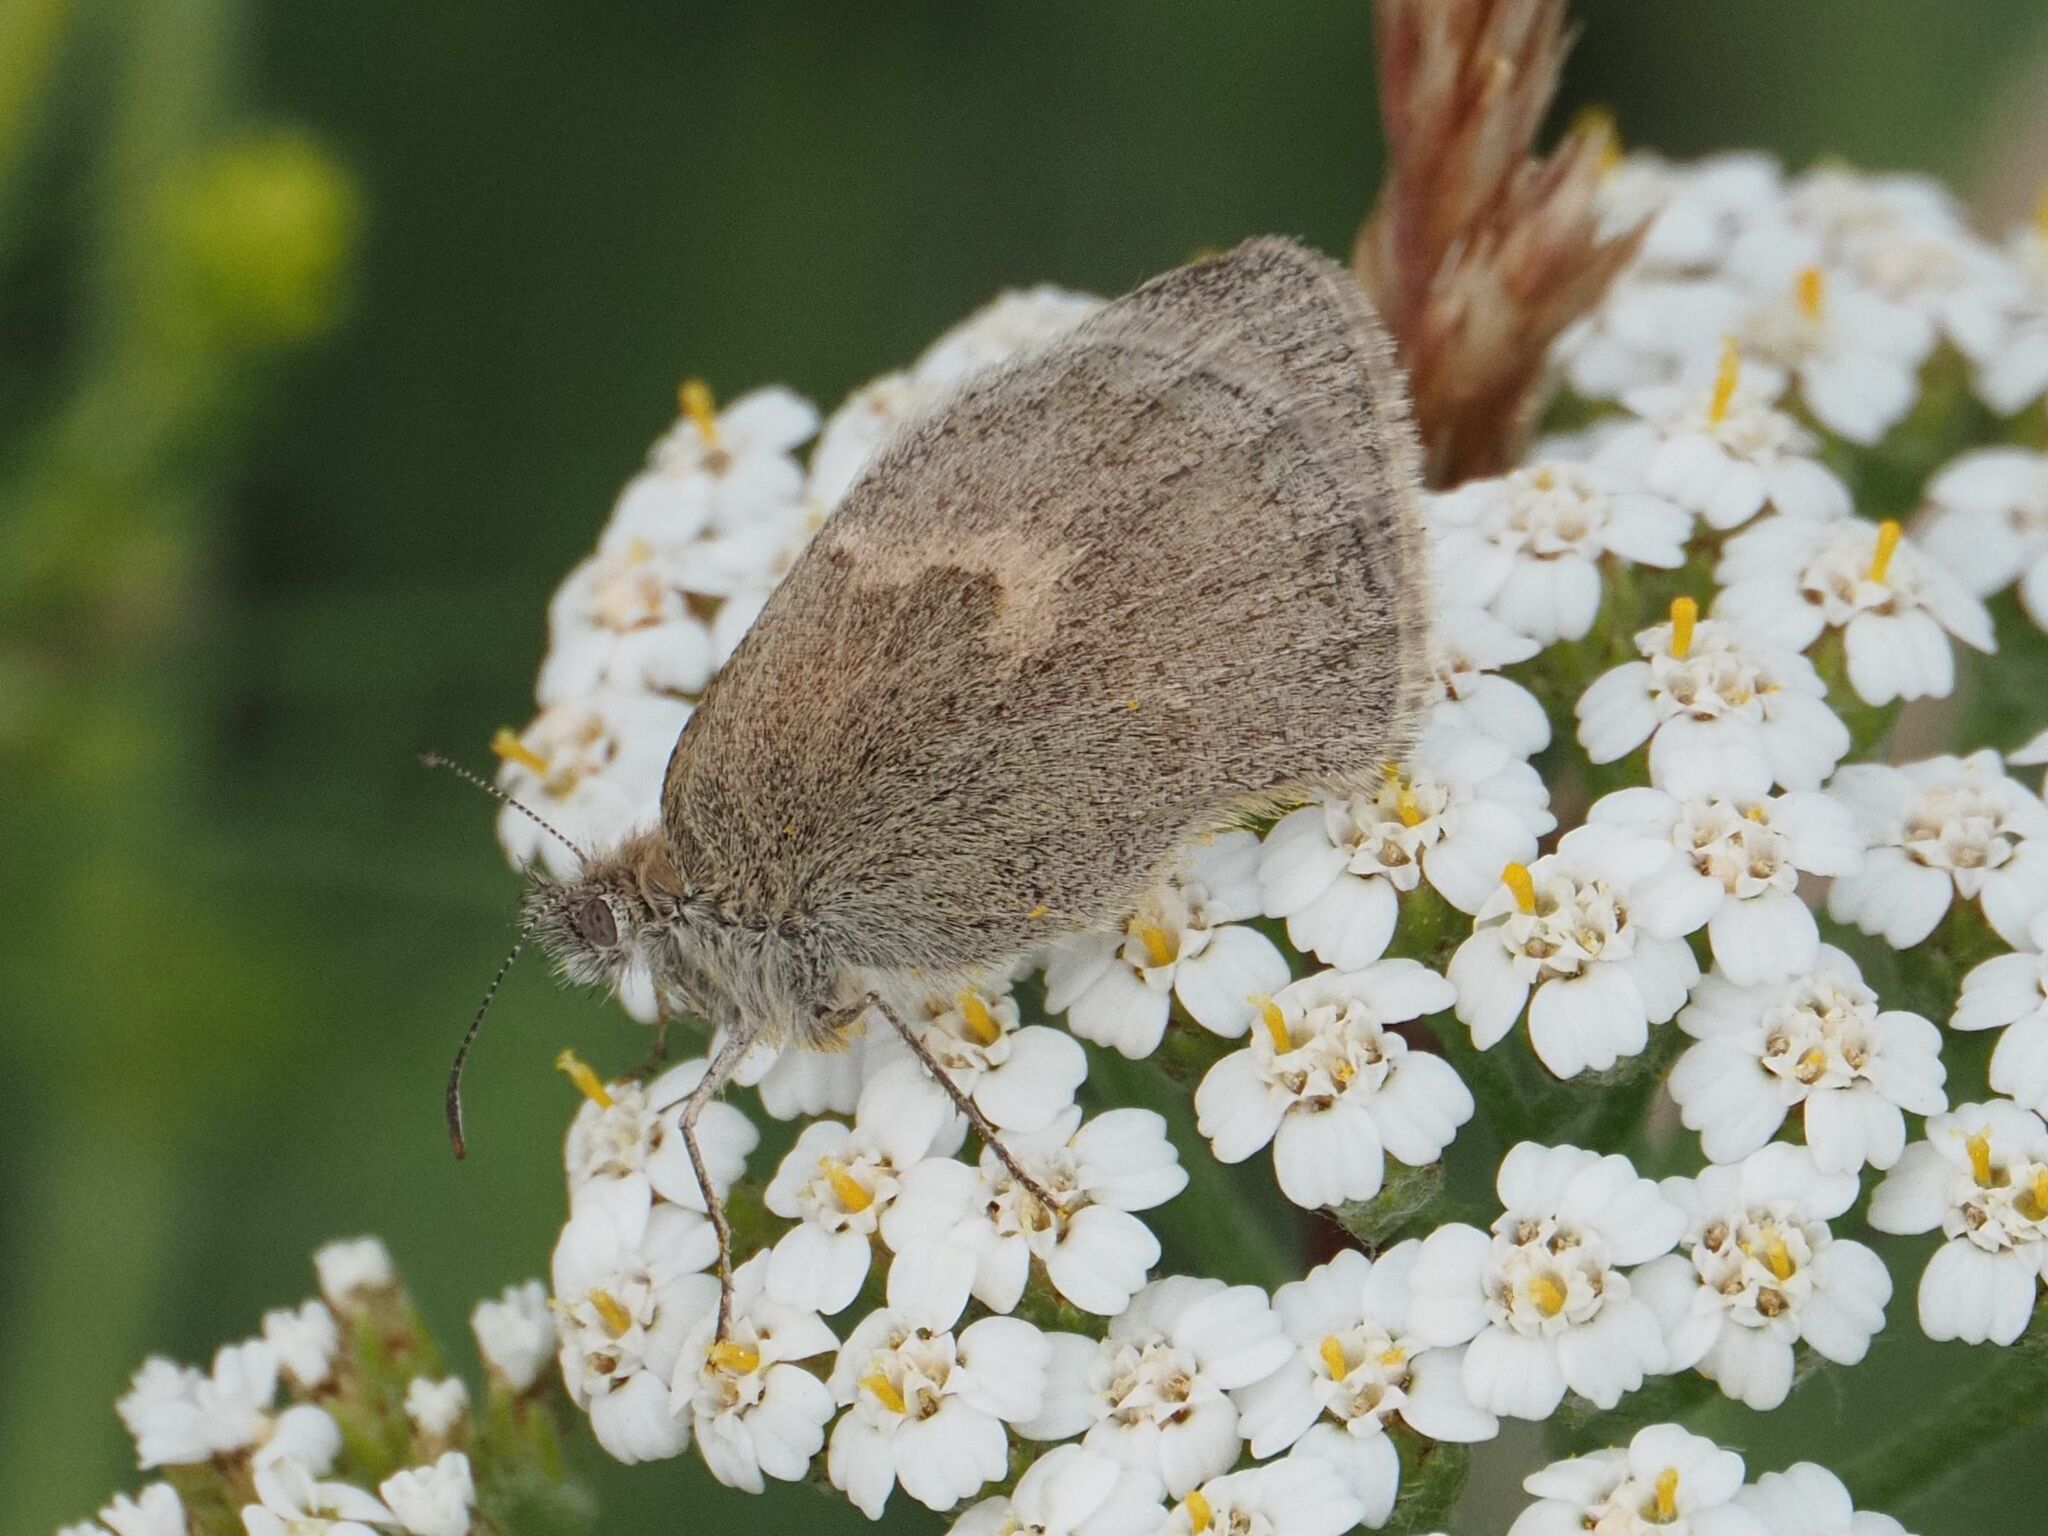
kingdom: Animalia
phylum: Arthropoda
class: Insecta
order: Lepidoptera
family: Nymphalidae
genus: Coenonympha
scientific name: Coenonympha pamphilus
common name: Small heath
